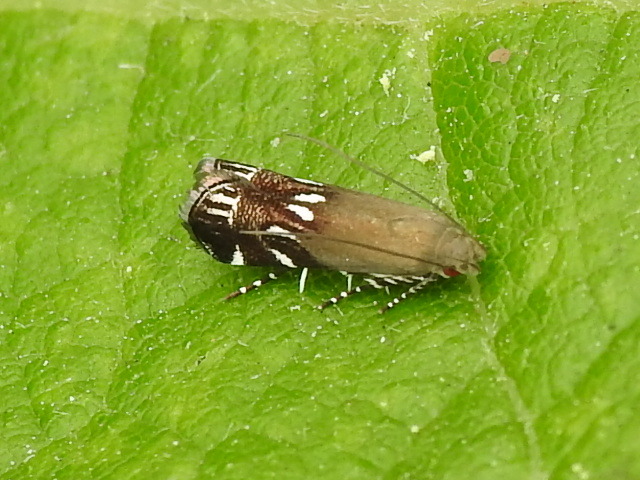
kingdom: Animalia
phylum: Arthropoda
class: Insecta
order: Lepidoptera
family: Gelechiidae
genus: Anacampsis
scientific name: Anacampsis levipedella
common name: Silver-dashed anacampsis
